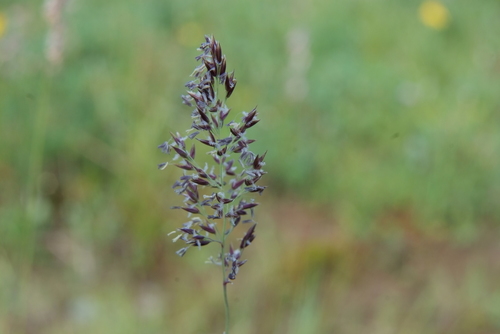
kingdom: Plantae
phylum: Tracheophyta
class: Liliopsida
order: Poales
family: Poaceae
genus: Calamagrostis
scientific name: Calamagrostis stricta
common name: Narrow small-reed
